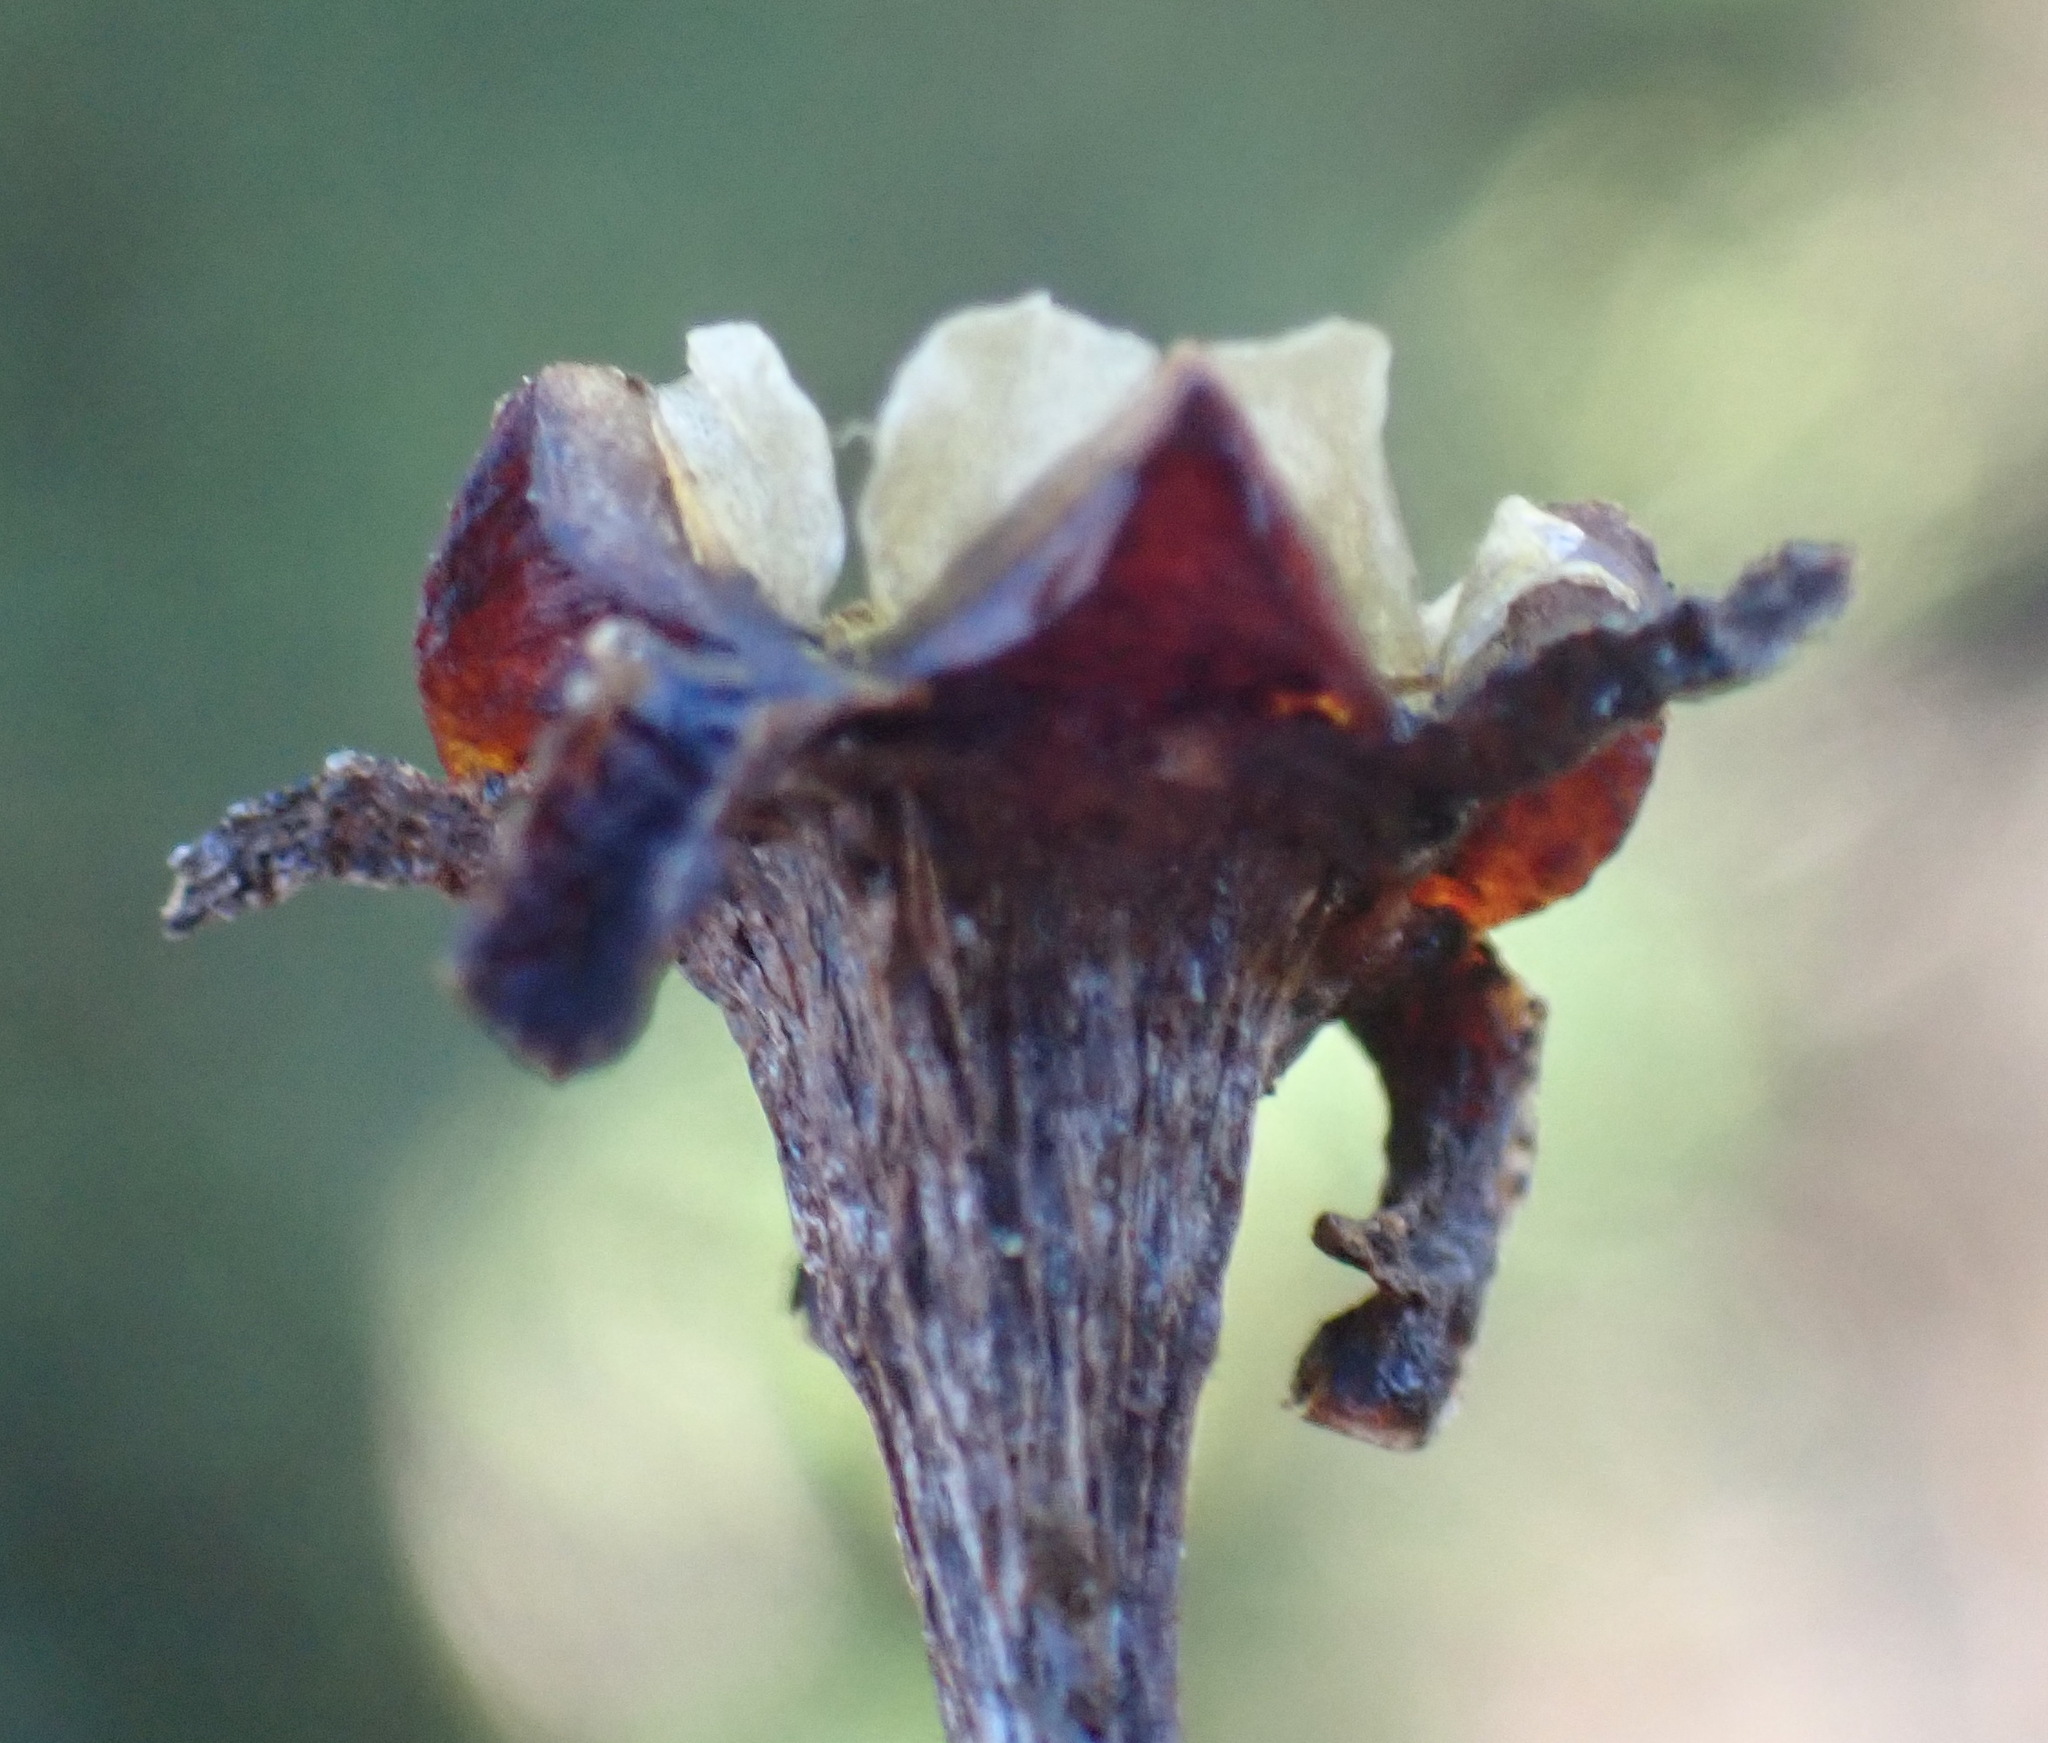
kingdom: Plantae
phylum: Tracheophyta
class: Magnoliopsida
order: Caryophyllales
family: Aizoaceae
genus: Lampranthus
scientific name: Lampranthus fergusoniae
